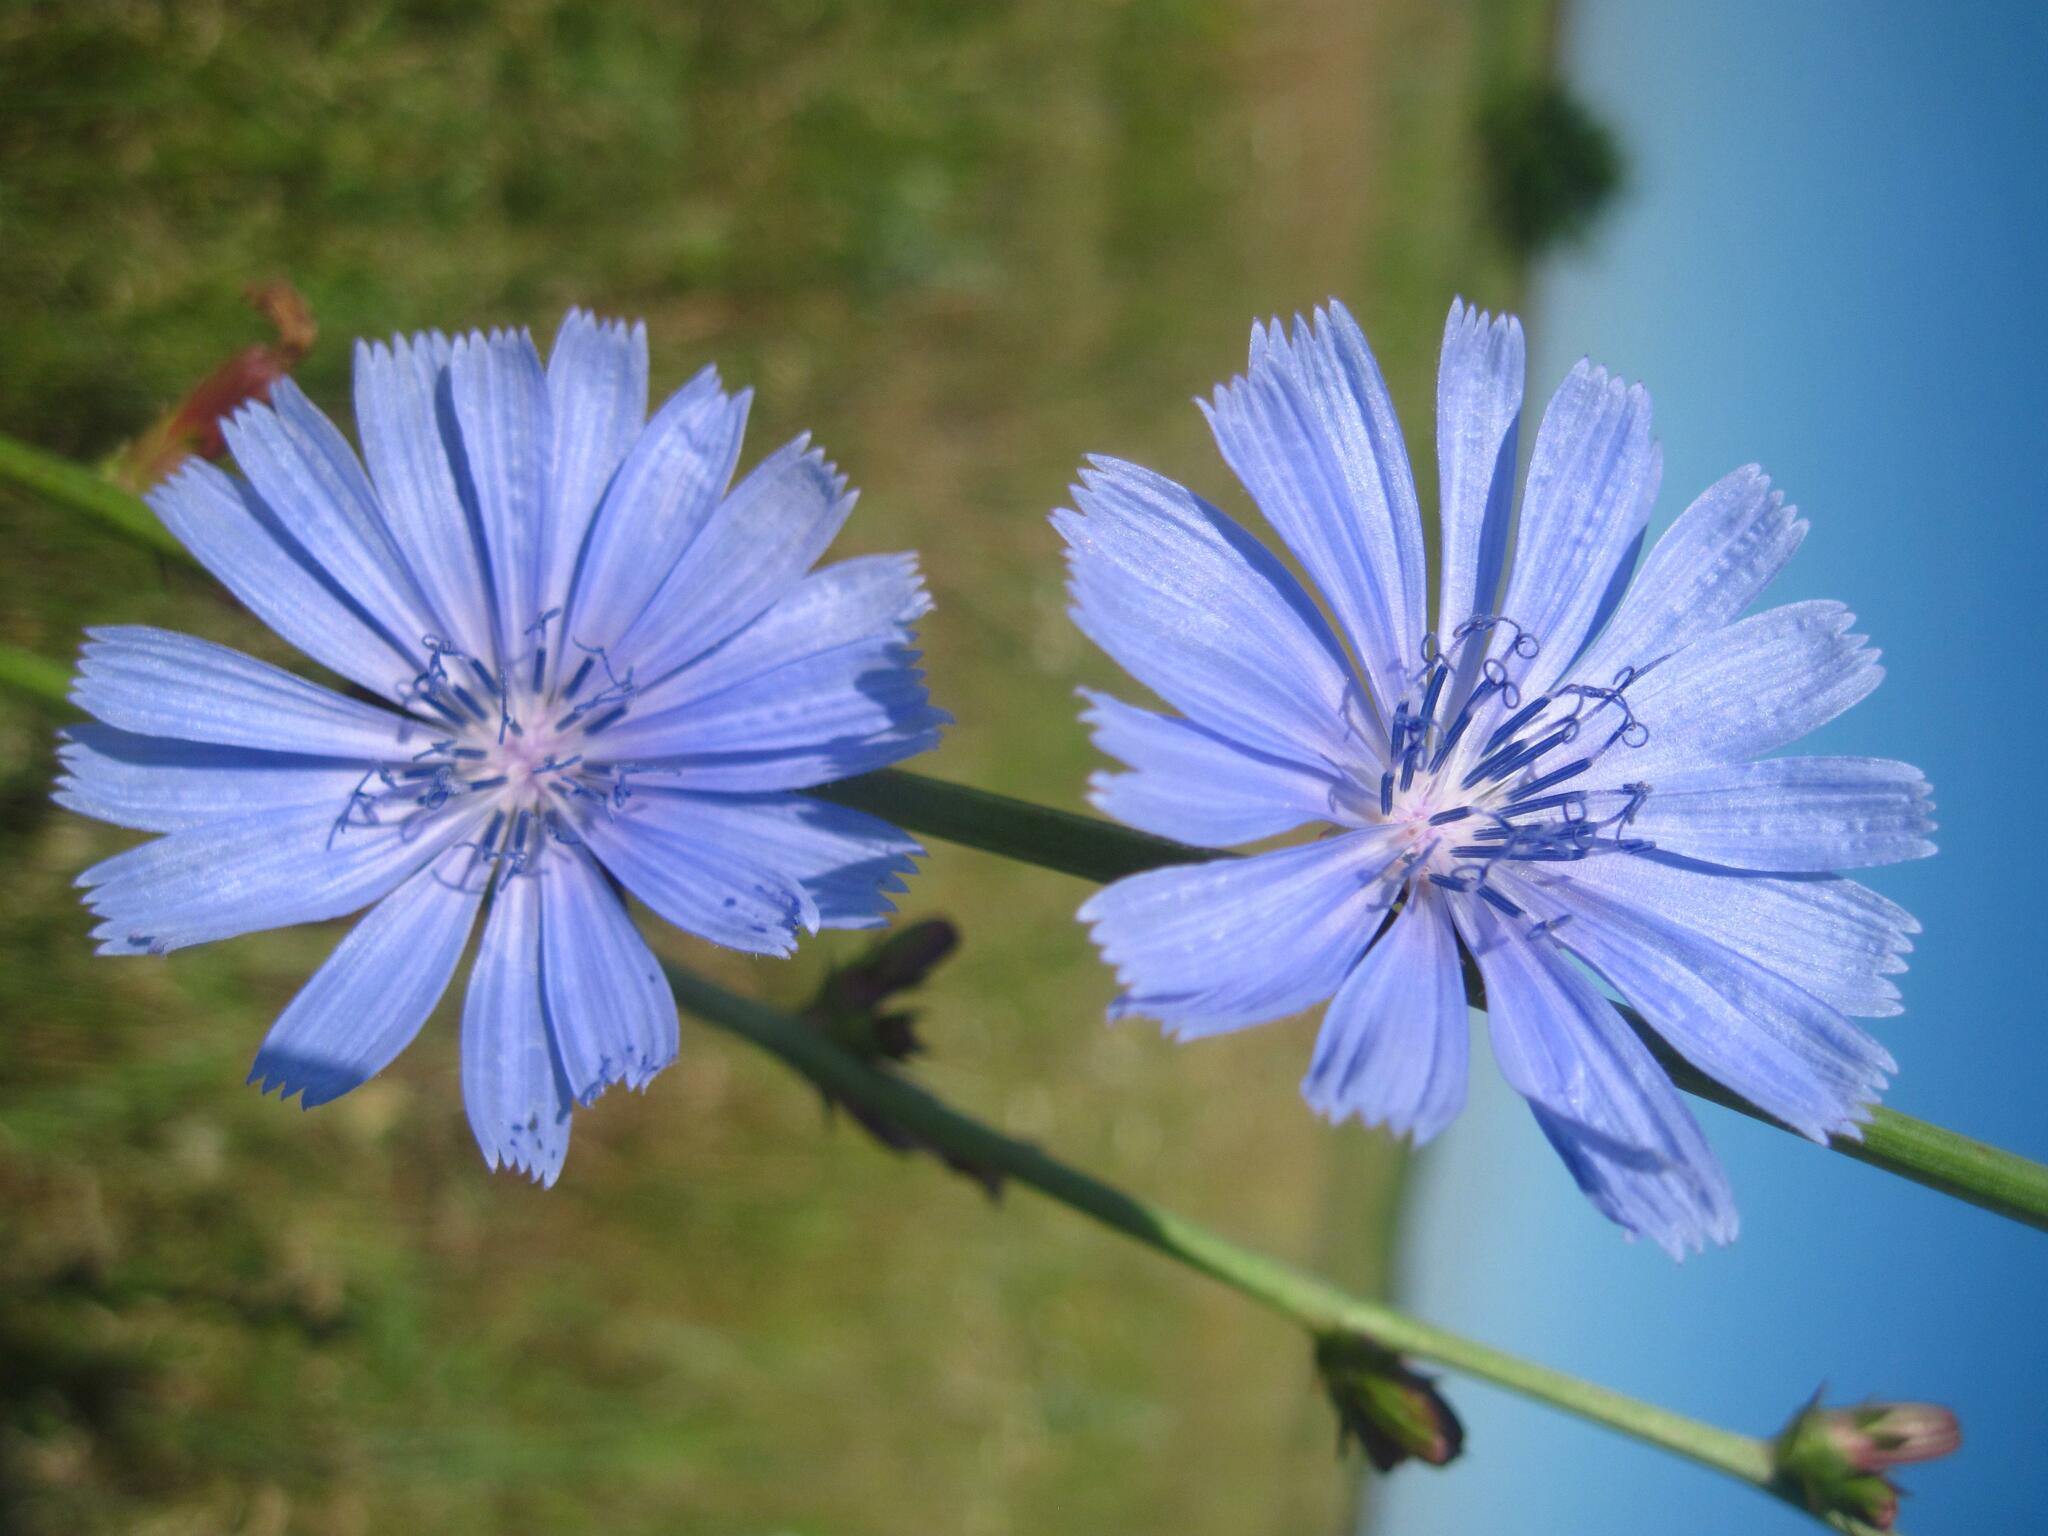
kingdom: Plantae
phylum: Tracheophyta
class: Magnoliopsida
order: Asterales
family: Asteraceae
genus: Cichorium
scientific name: Cichorium intybus
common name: Chicory
